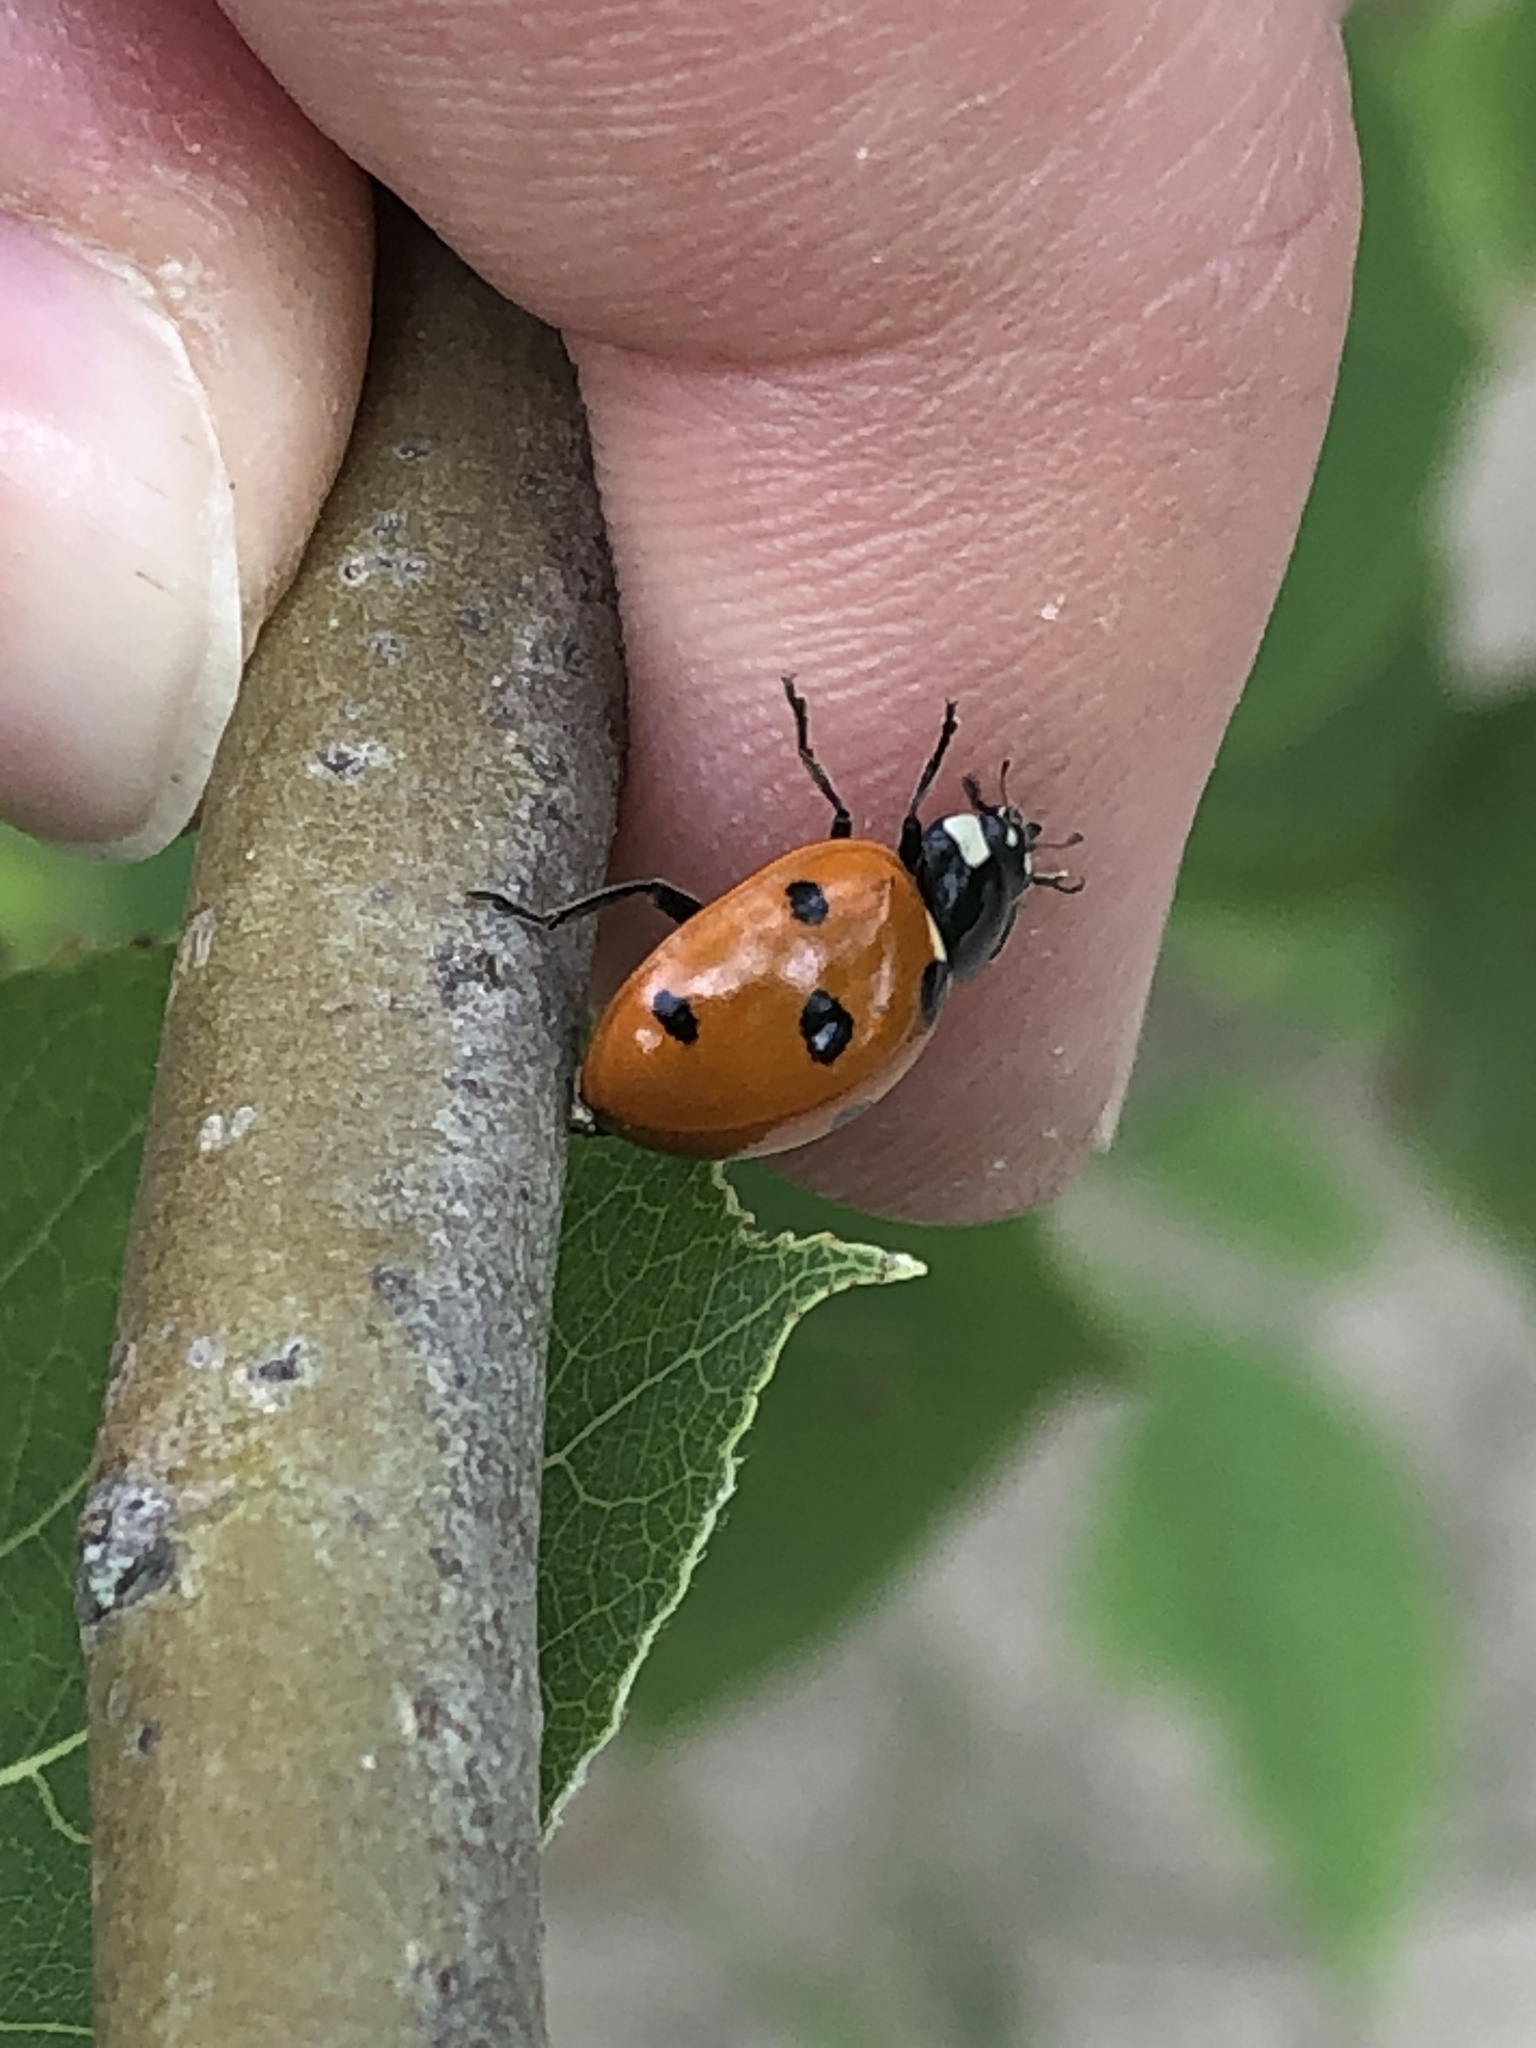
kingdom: Animalia
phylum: Arthropoda
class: Insecta
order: Coleoptera
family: Coccinellidae
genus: Coccinella
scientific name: Coccinella septempunctata
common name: Sevenspotted lady beetle
